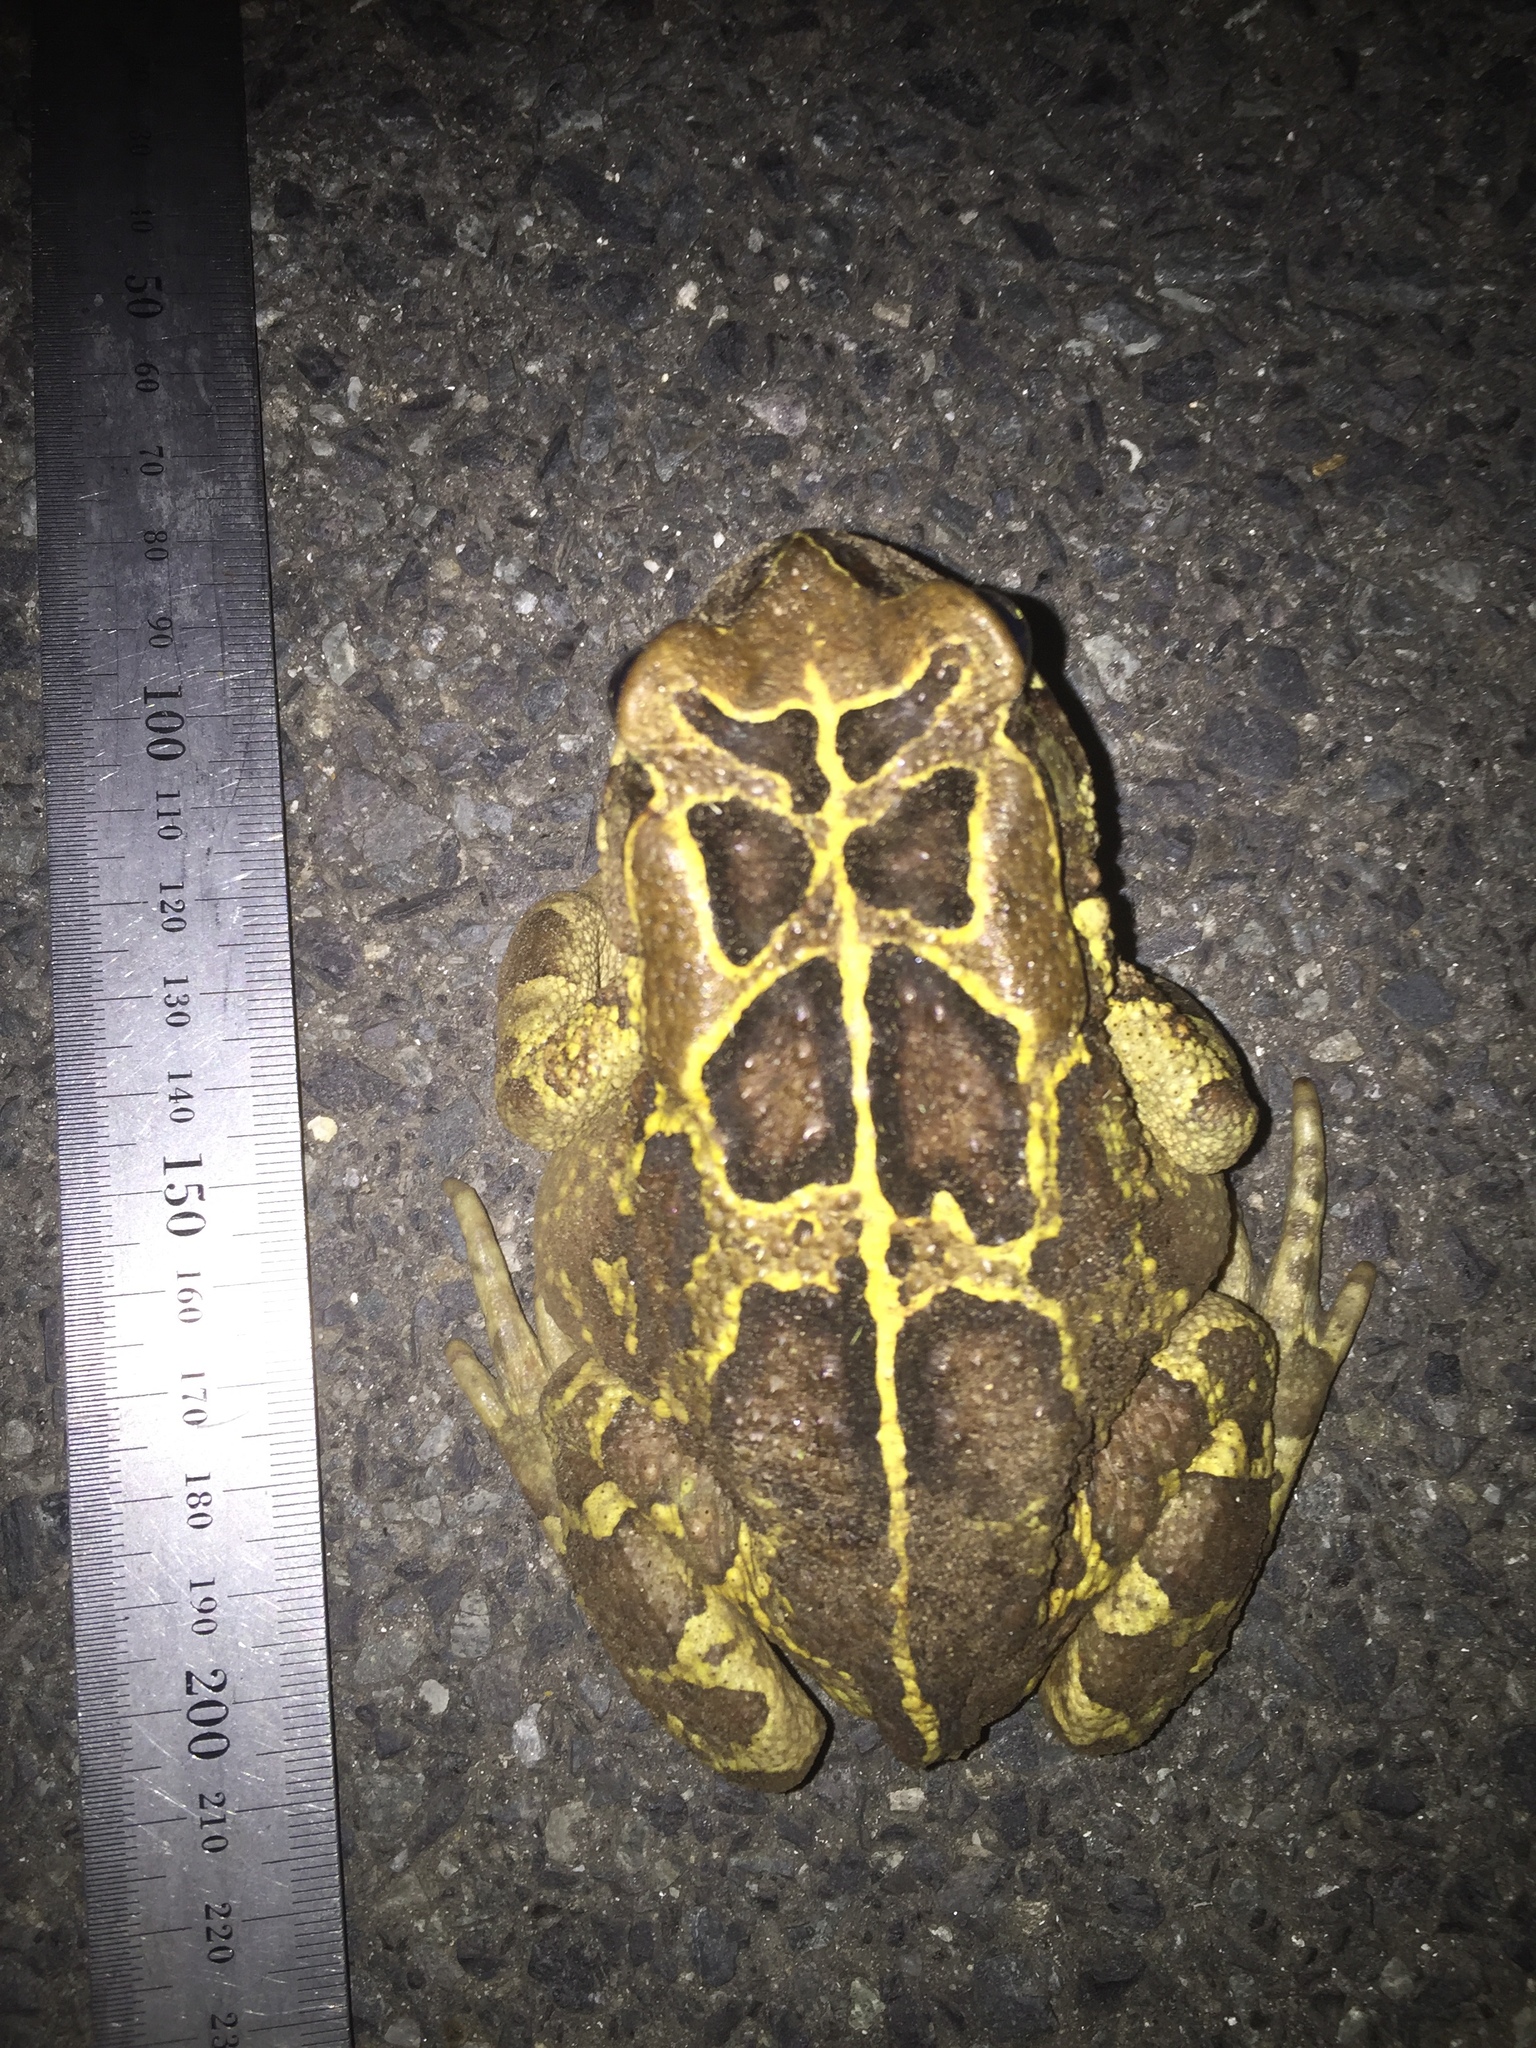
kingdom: Animalia
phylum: Chordata
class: Amphibia
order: Anura
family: Bufonidae
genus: Sclerophrys
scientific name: Sclerophrys pantherina
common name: Panther toad
